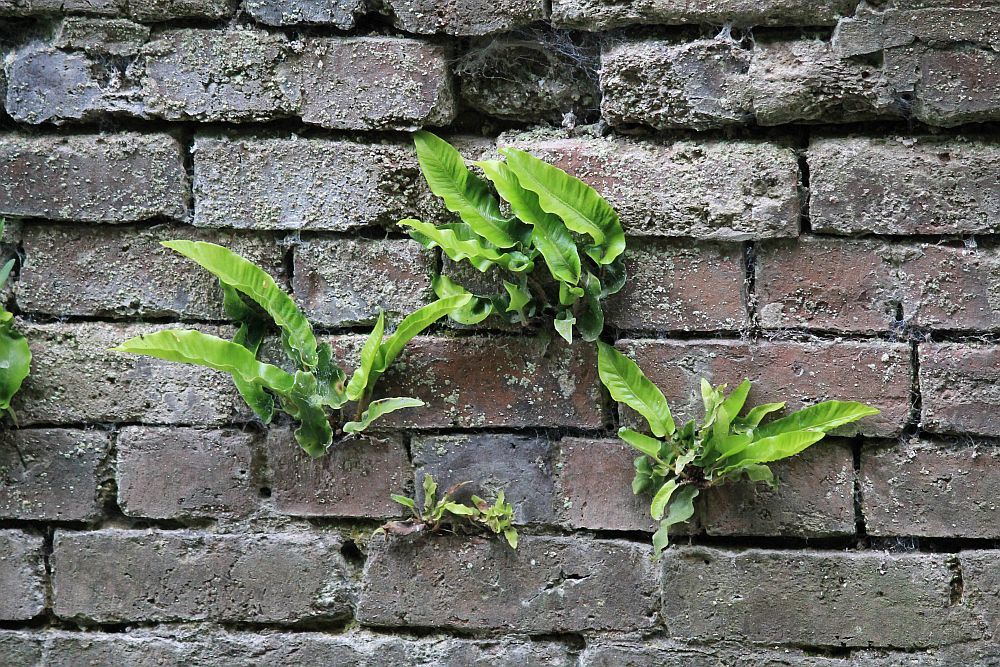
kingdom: Plantae
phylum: Tracheophyta
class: Polypodiopsida
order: Polypodiales
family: Aspleniaceae
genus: Asplenium
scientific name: Asplenium scolopendrium
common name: Hart's-tongue fern
